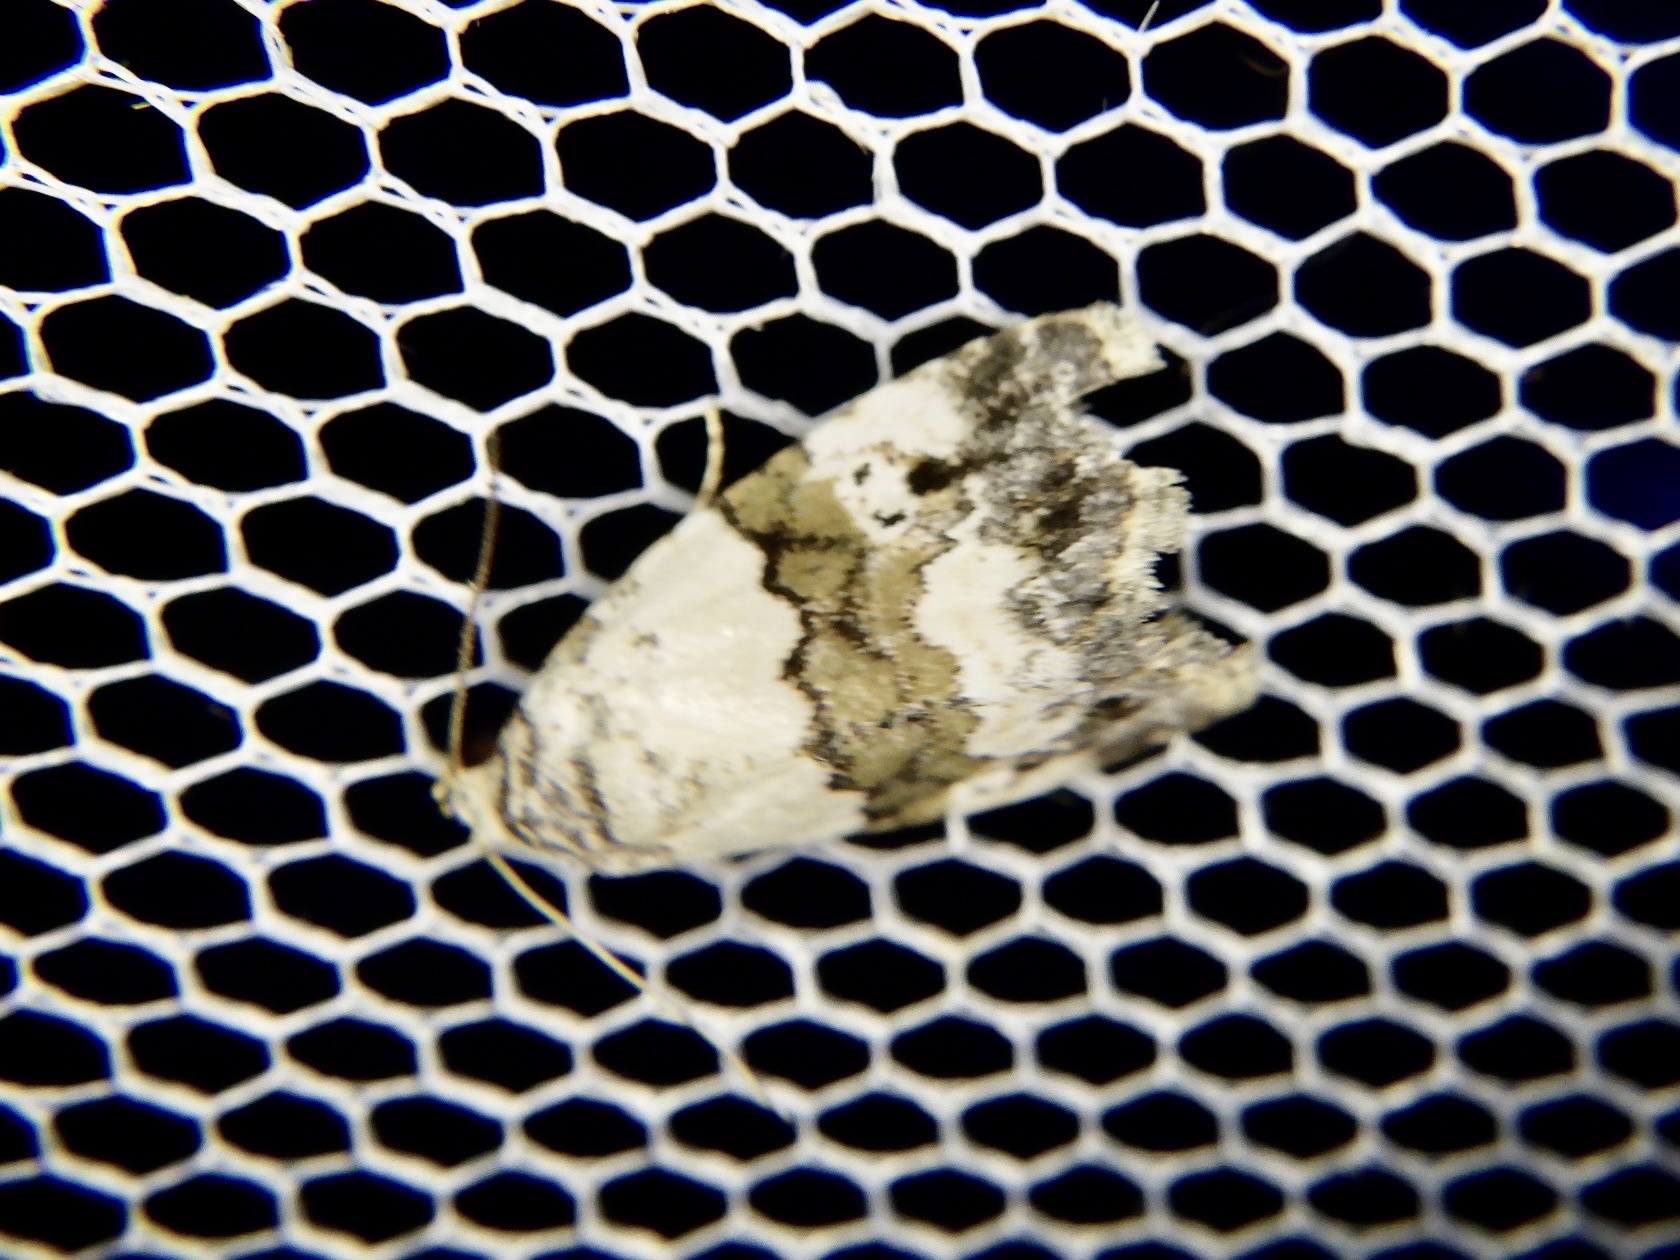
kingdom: Animalia
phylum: Arthropoda
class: Insecta
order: Lepidoptera
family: Noctuidae
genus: Maliattha
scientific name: Maliattha signifera
